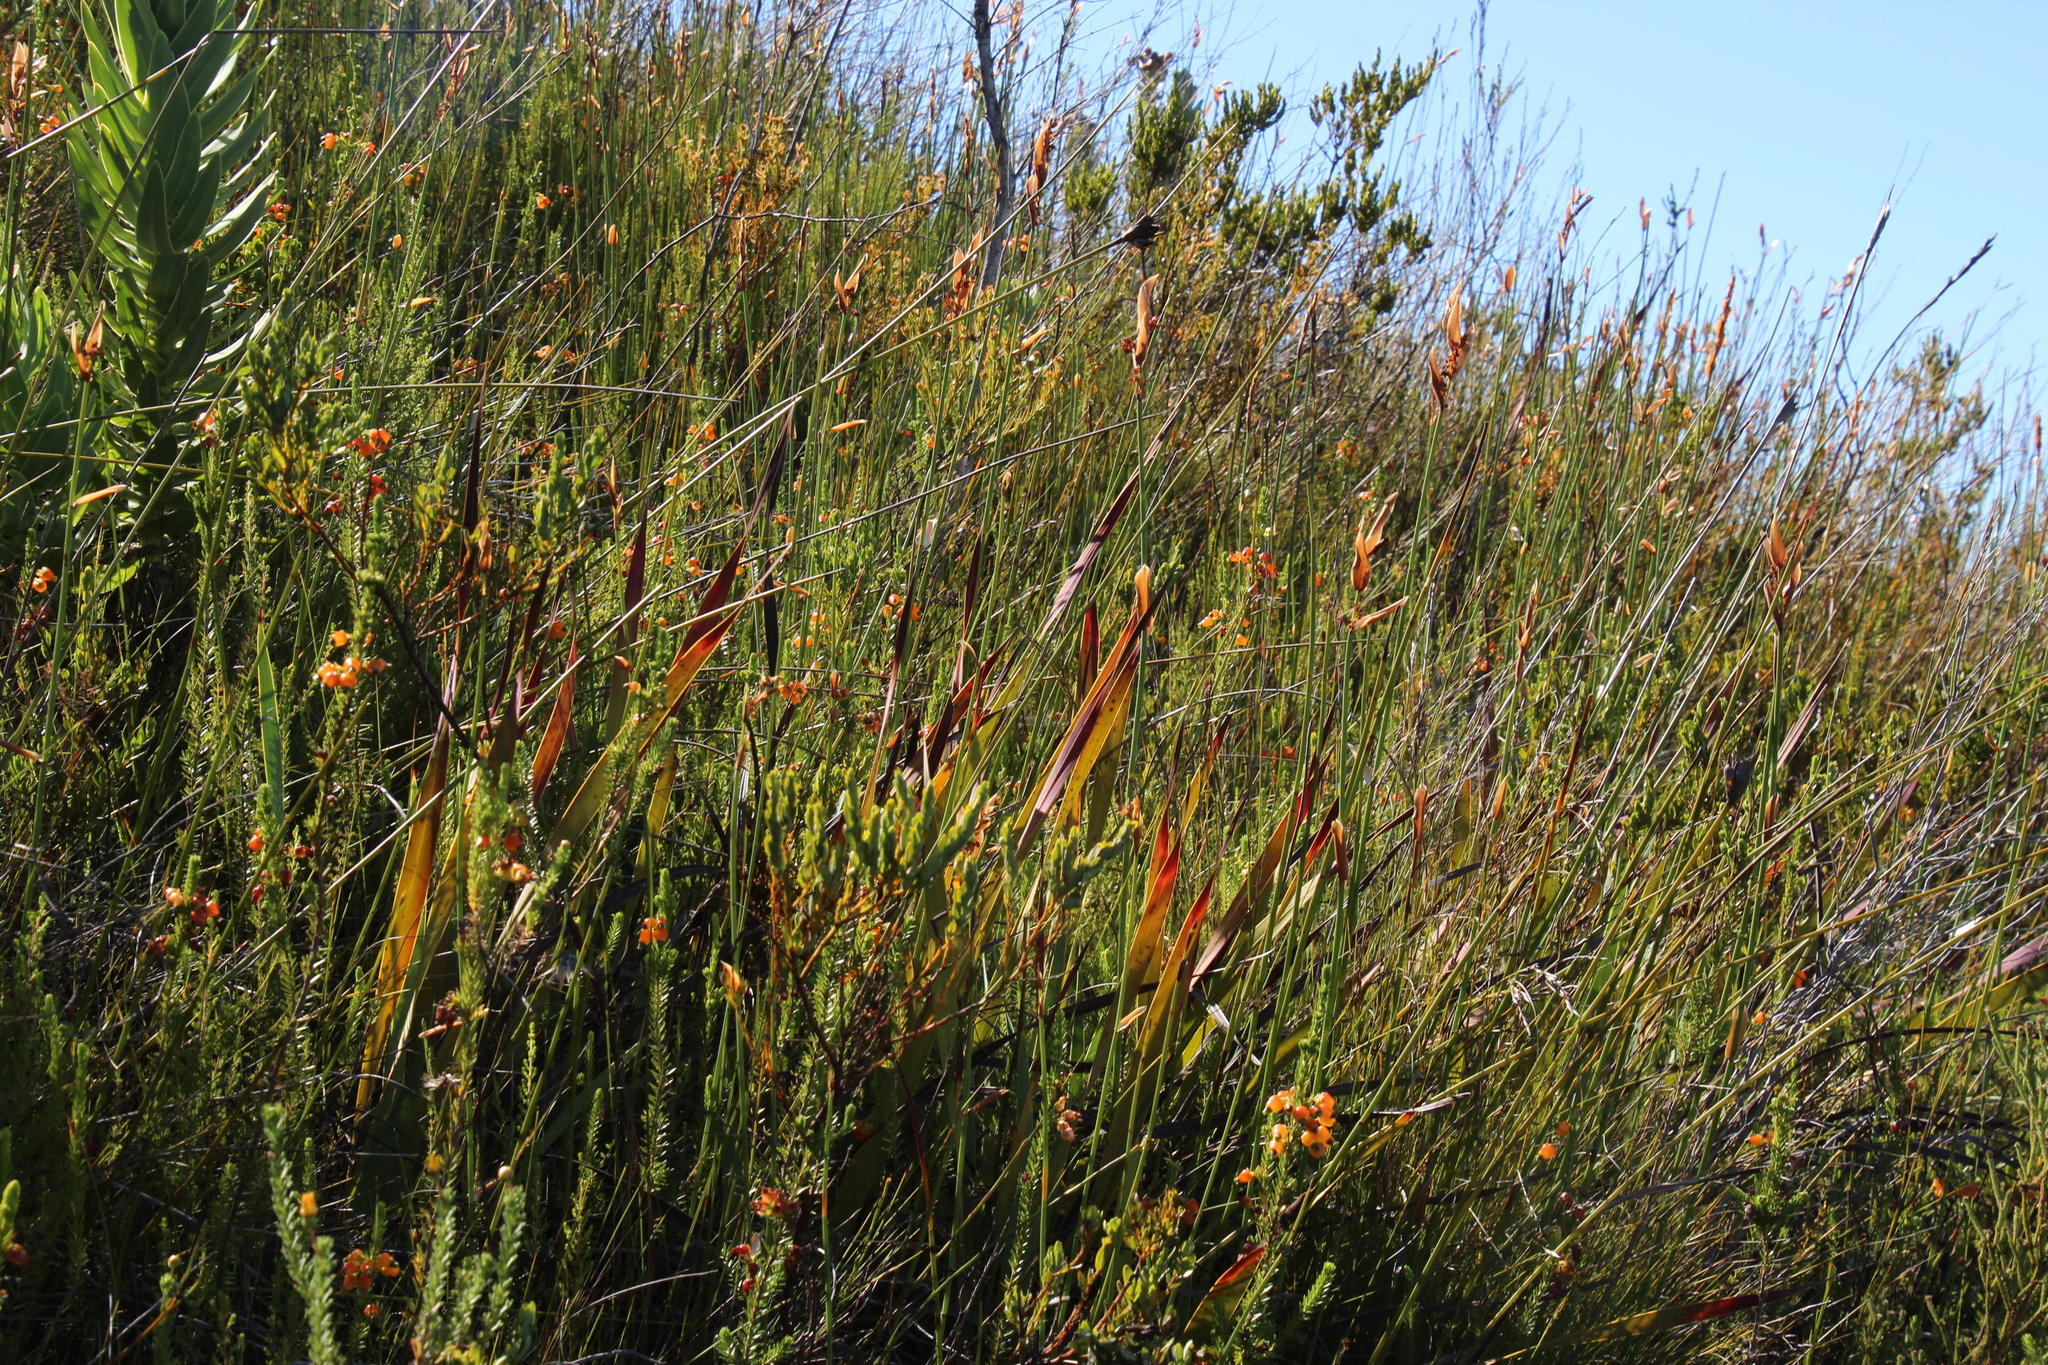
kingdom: Plantae
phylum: Tracheophyta
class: Magnoliopsida
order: Ericales
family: Ericaceae
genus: Erica
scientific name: Erica blenna
